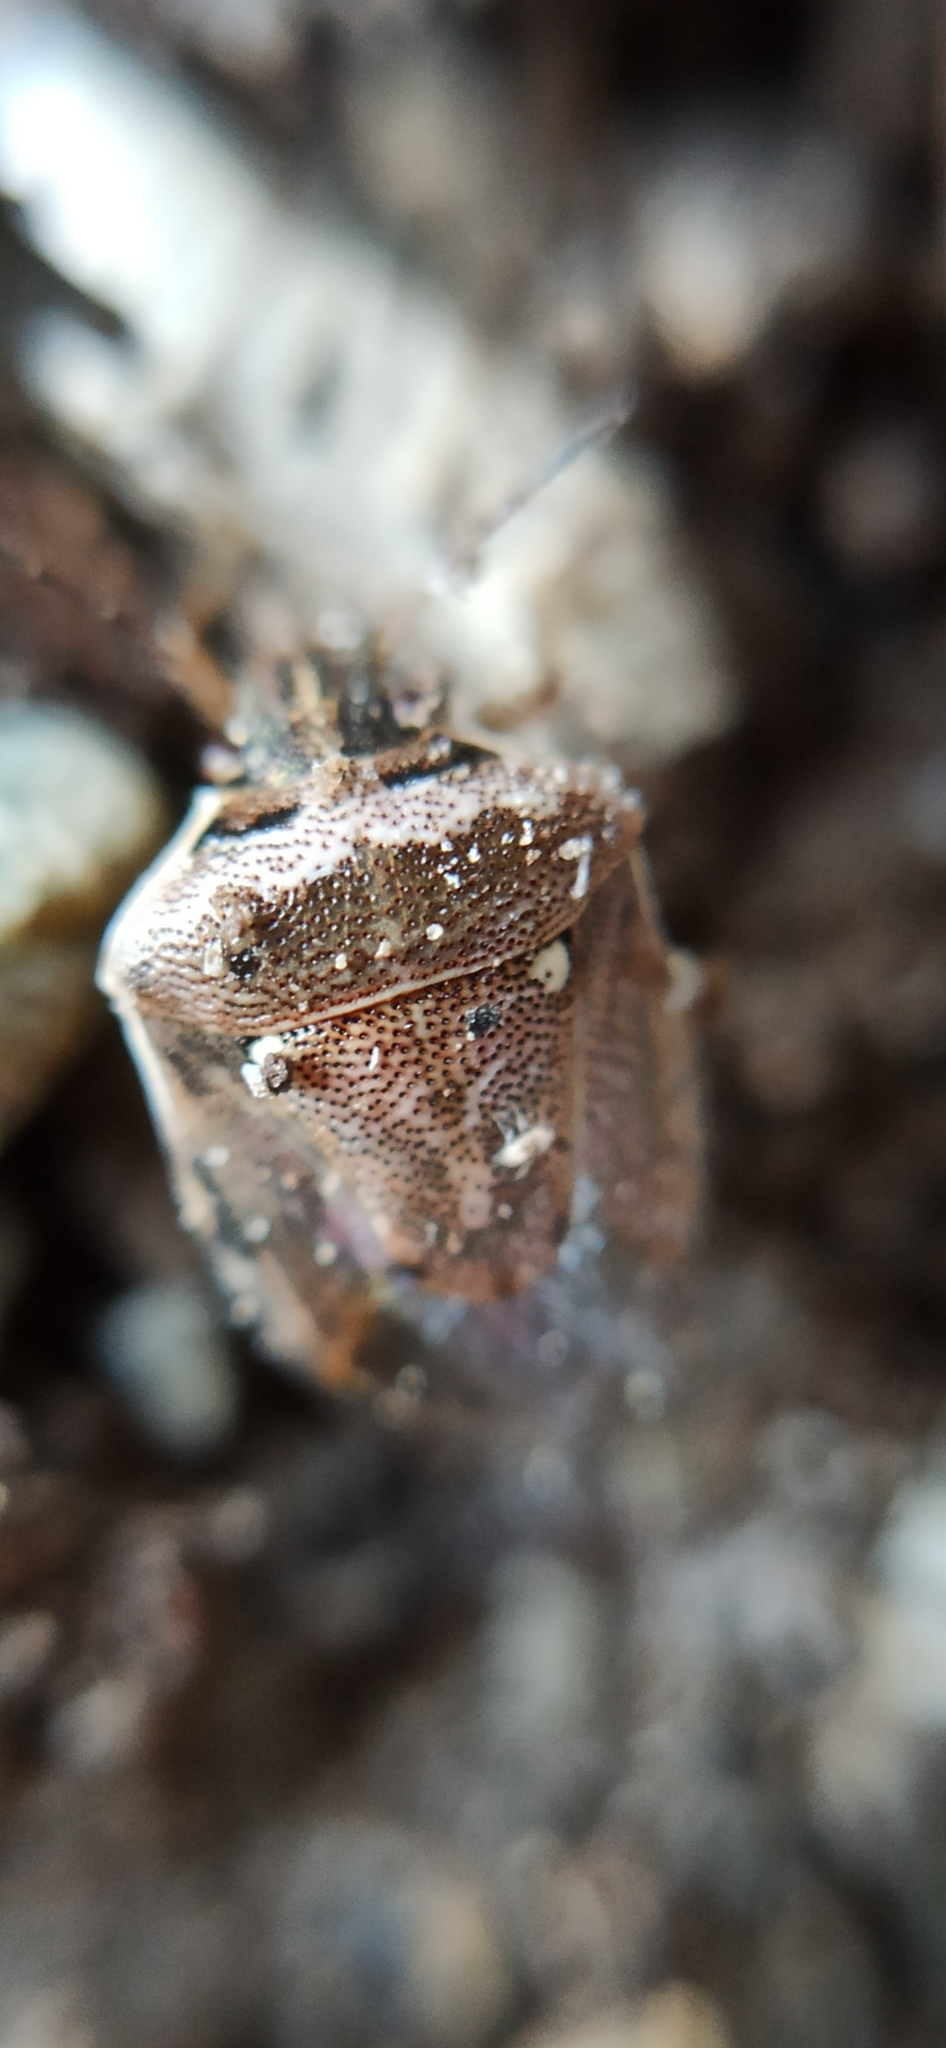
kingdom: Animalia
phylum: Arthropoda
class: Insecta
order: Hemiptera
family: Pentatomidae
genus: Eysarcoris
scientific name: Eysarcoris ventralis
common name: White-spotted stink bug
